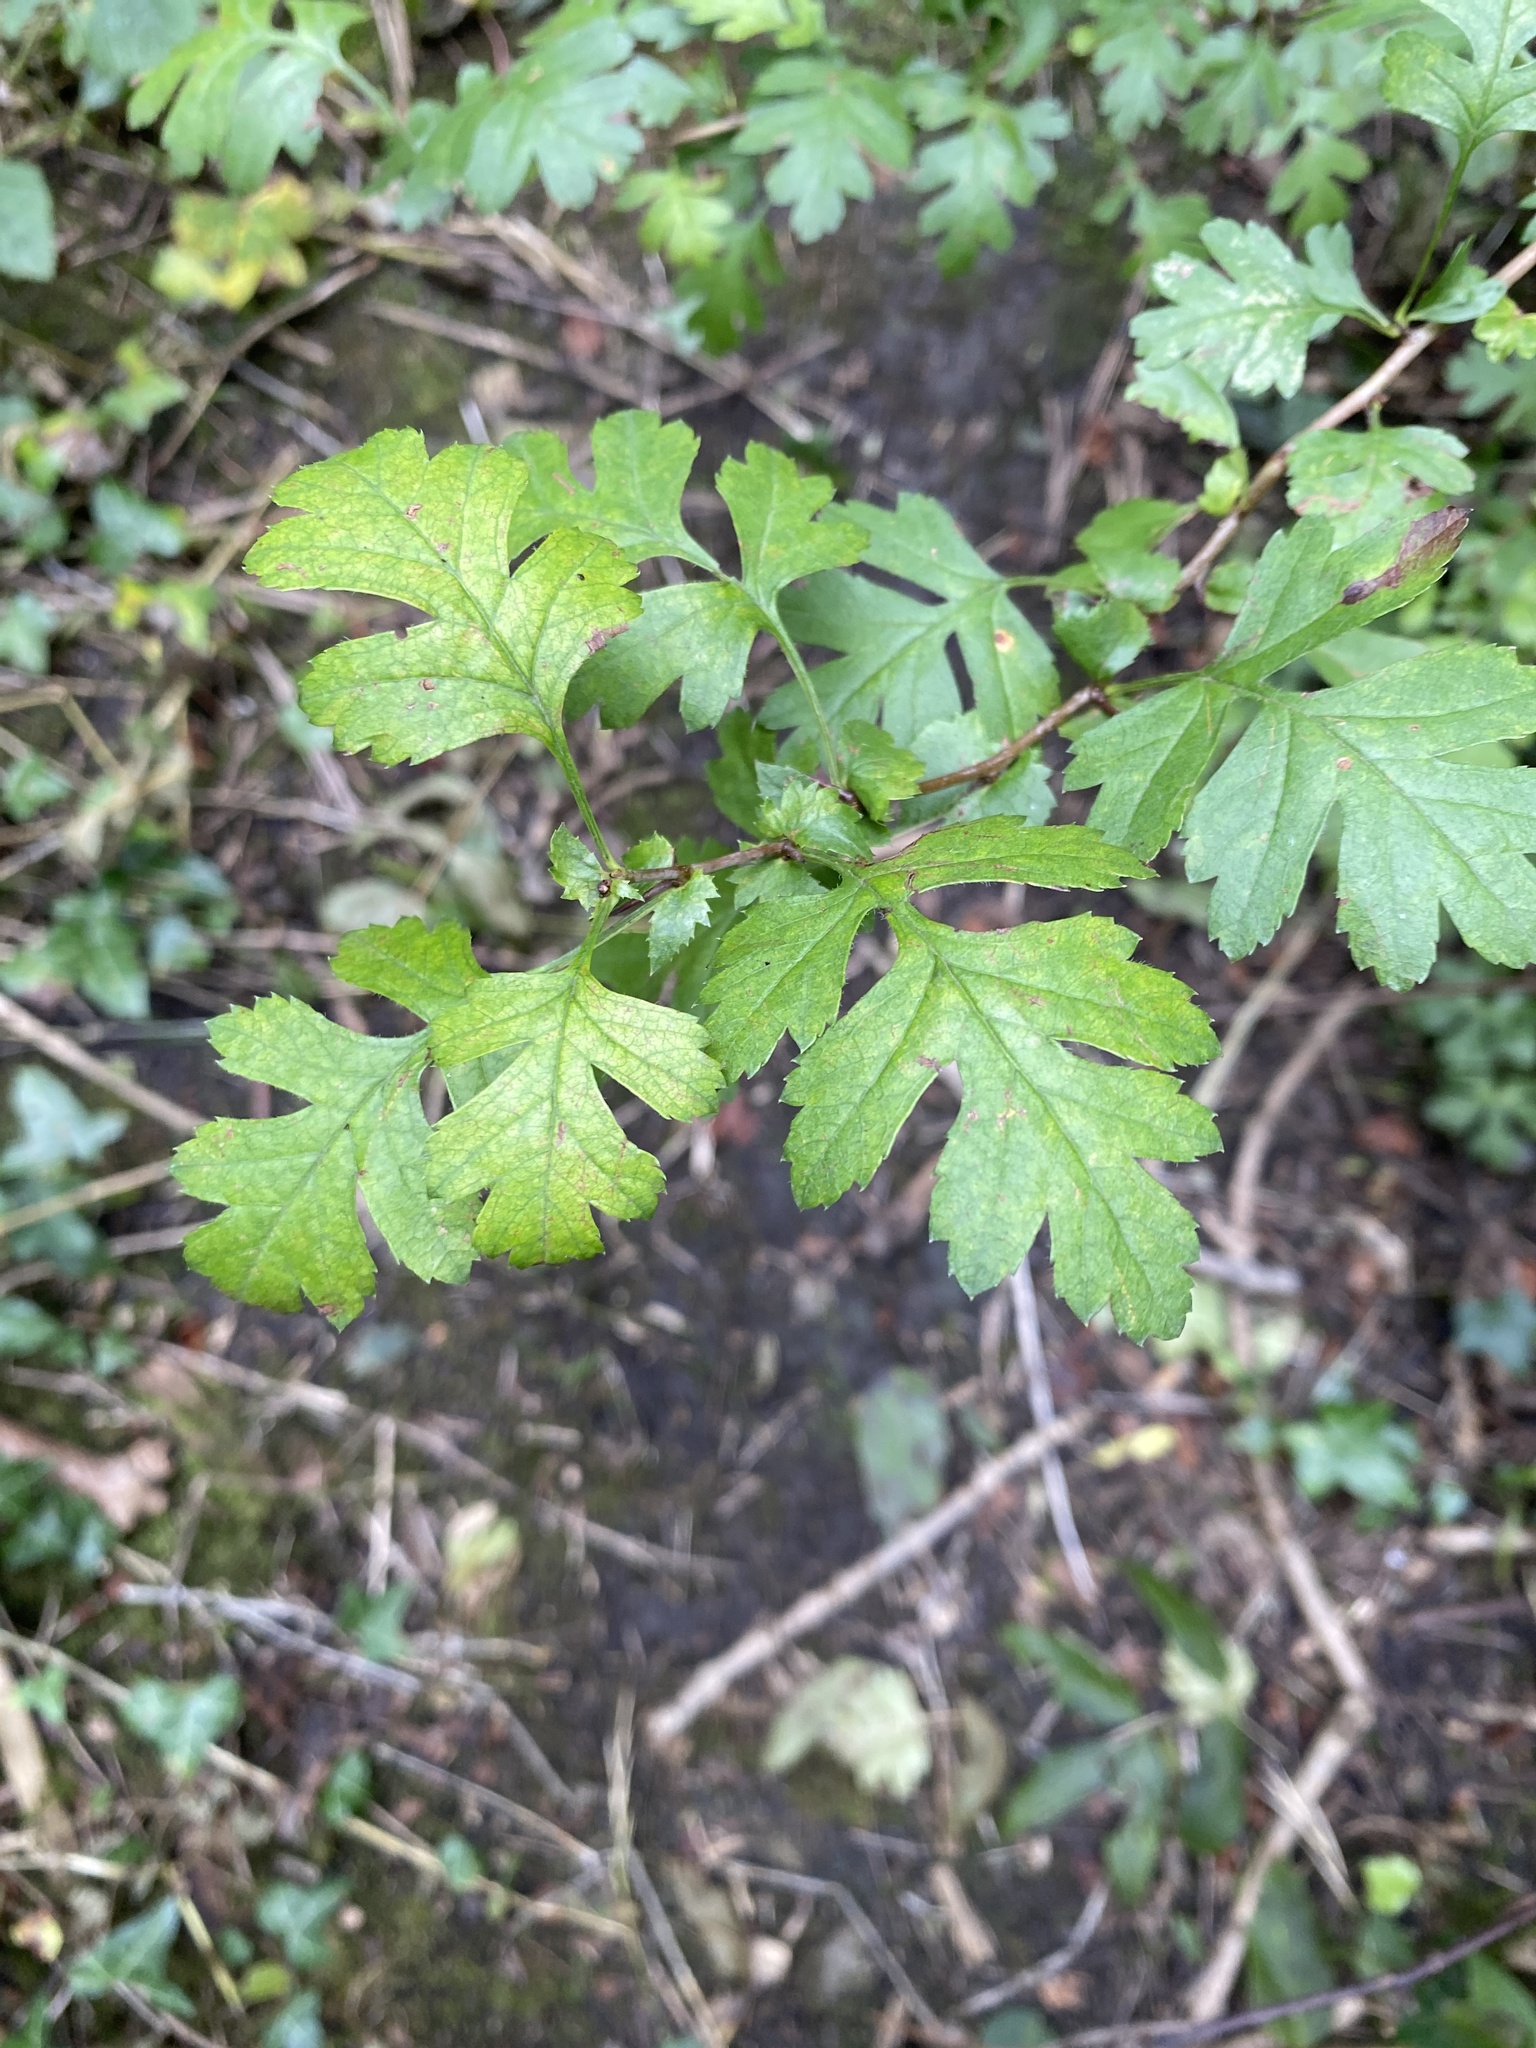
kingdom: Plantae
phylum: Tracheophyta
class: Magnoliopsida
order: Rosales
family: Rosaceae
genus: Crataegus
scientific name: Crataegus monogyna
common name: Hawthorn
